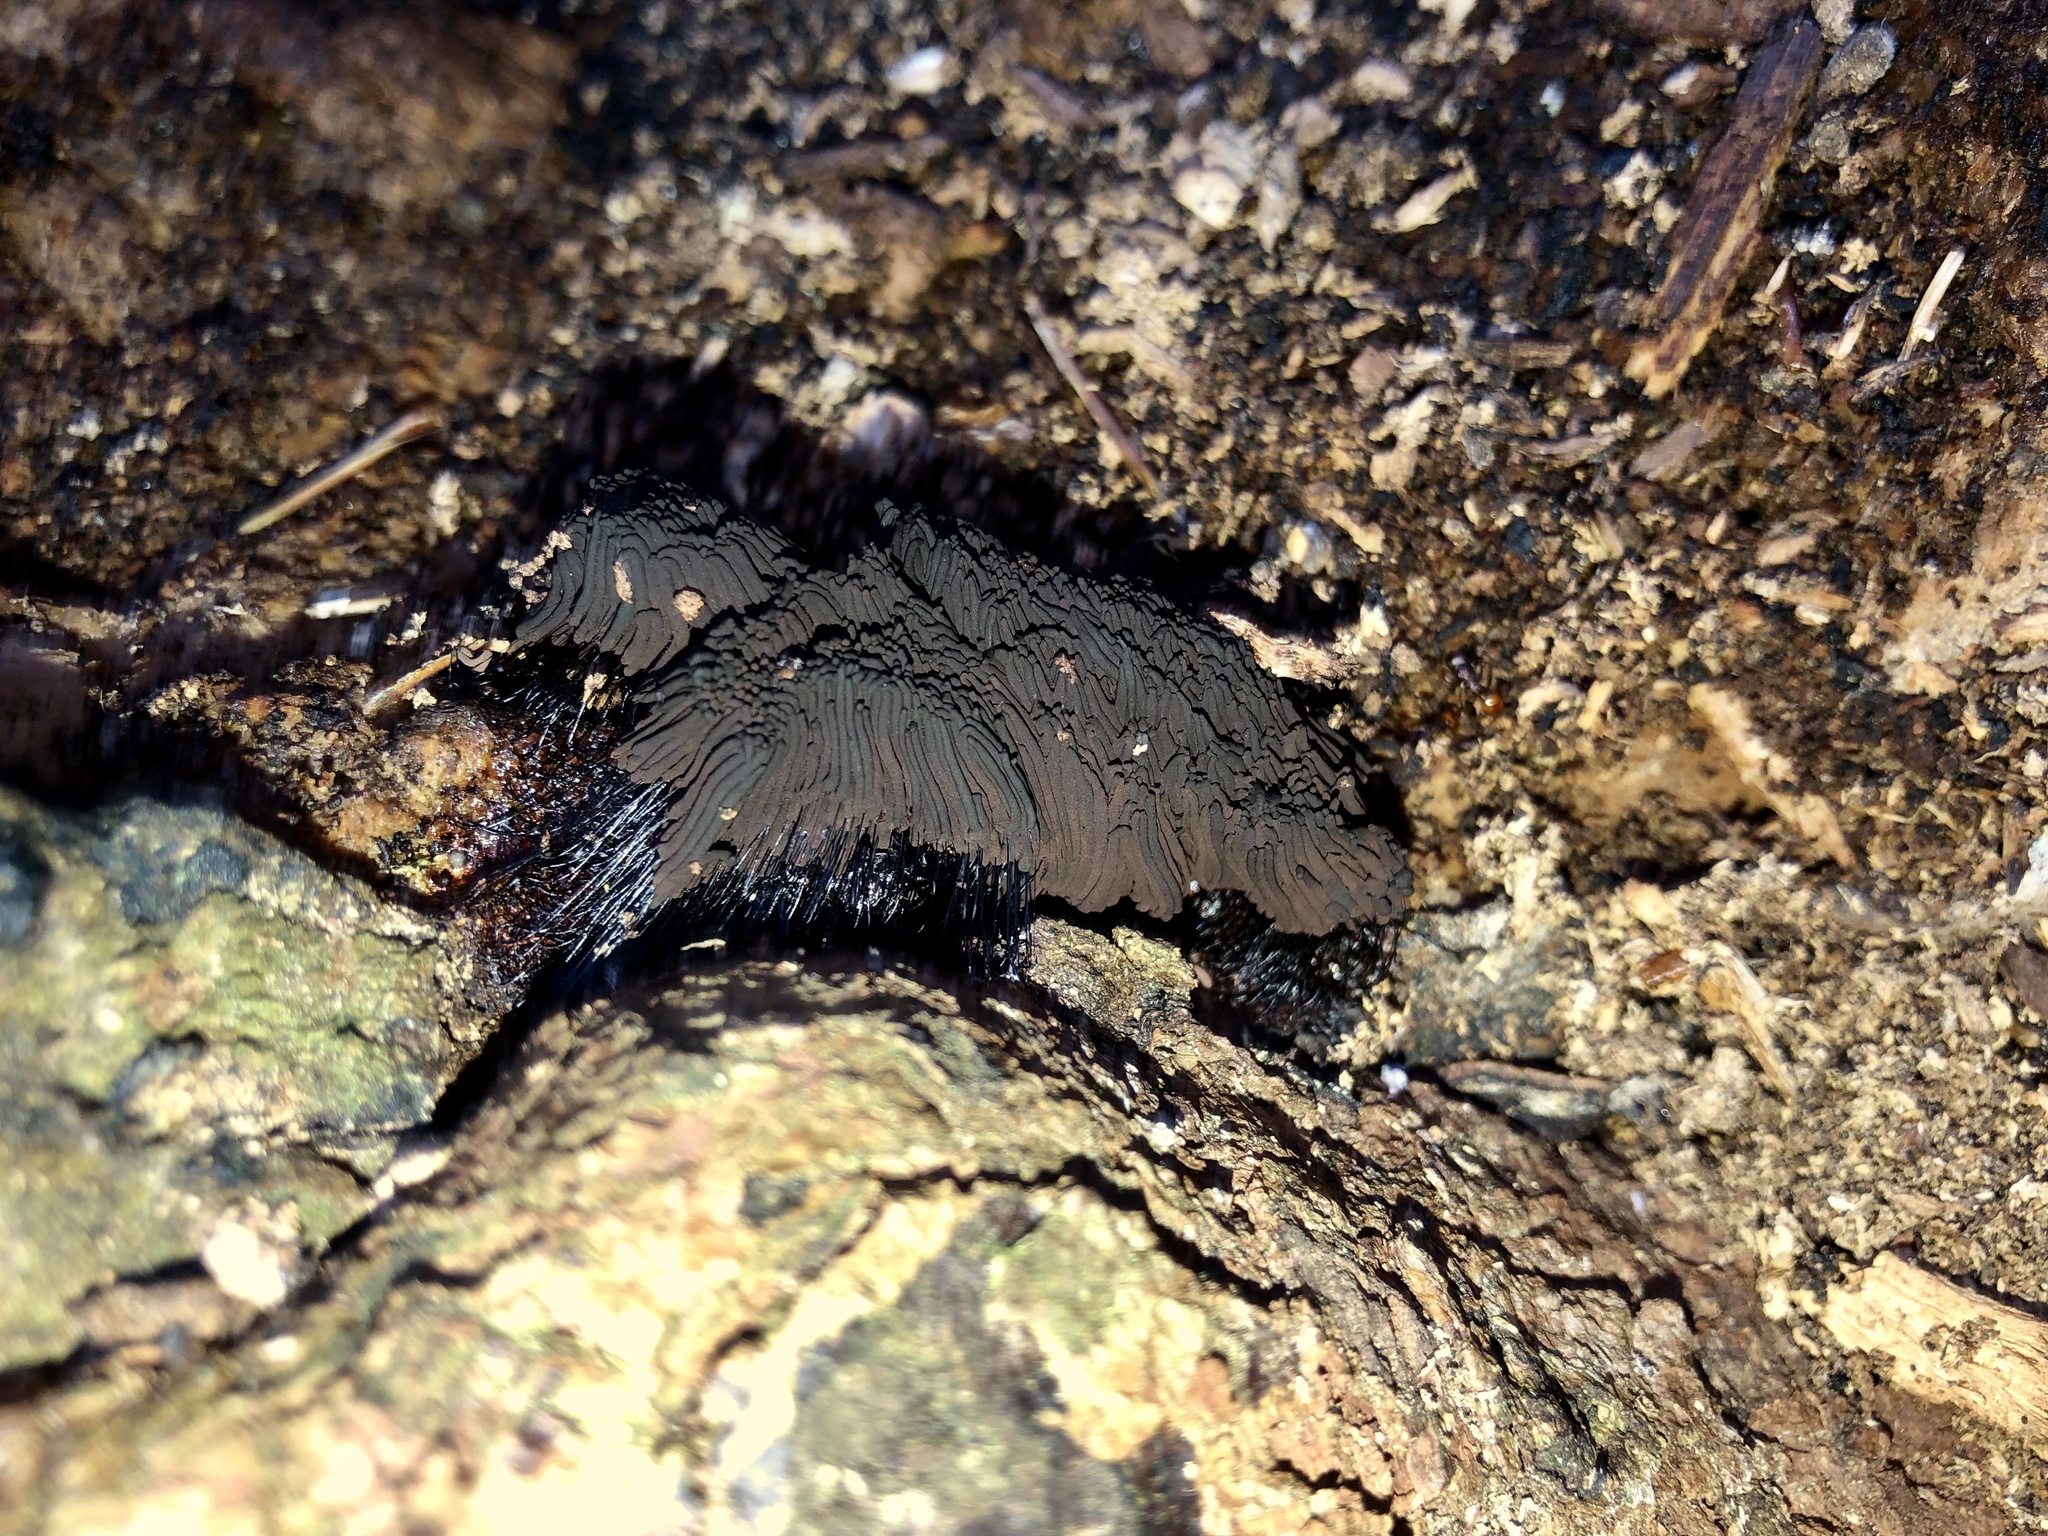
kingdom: Protozoa
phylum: Mycetozoa
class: Myxomycetes
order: Stemonitidales
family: Stemonitidaceae
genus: Stemonitis
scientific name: Stemonitis splendens
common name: Chocolate tube slime
